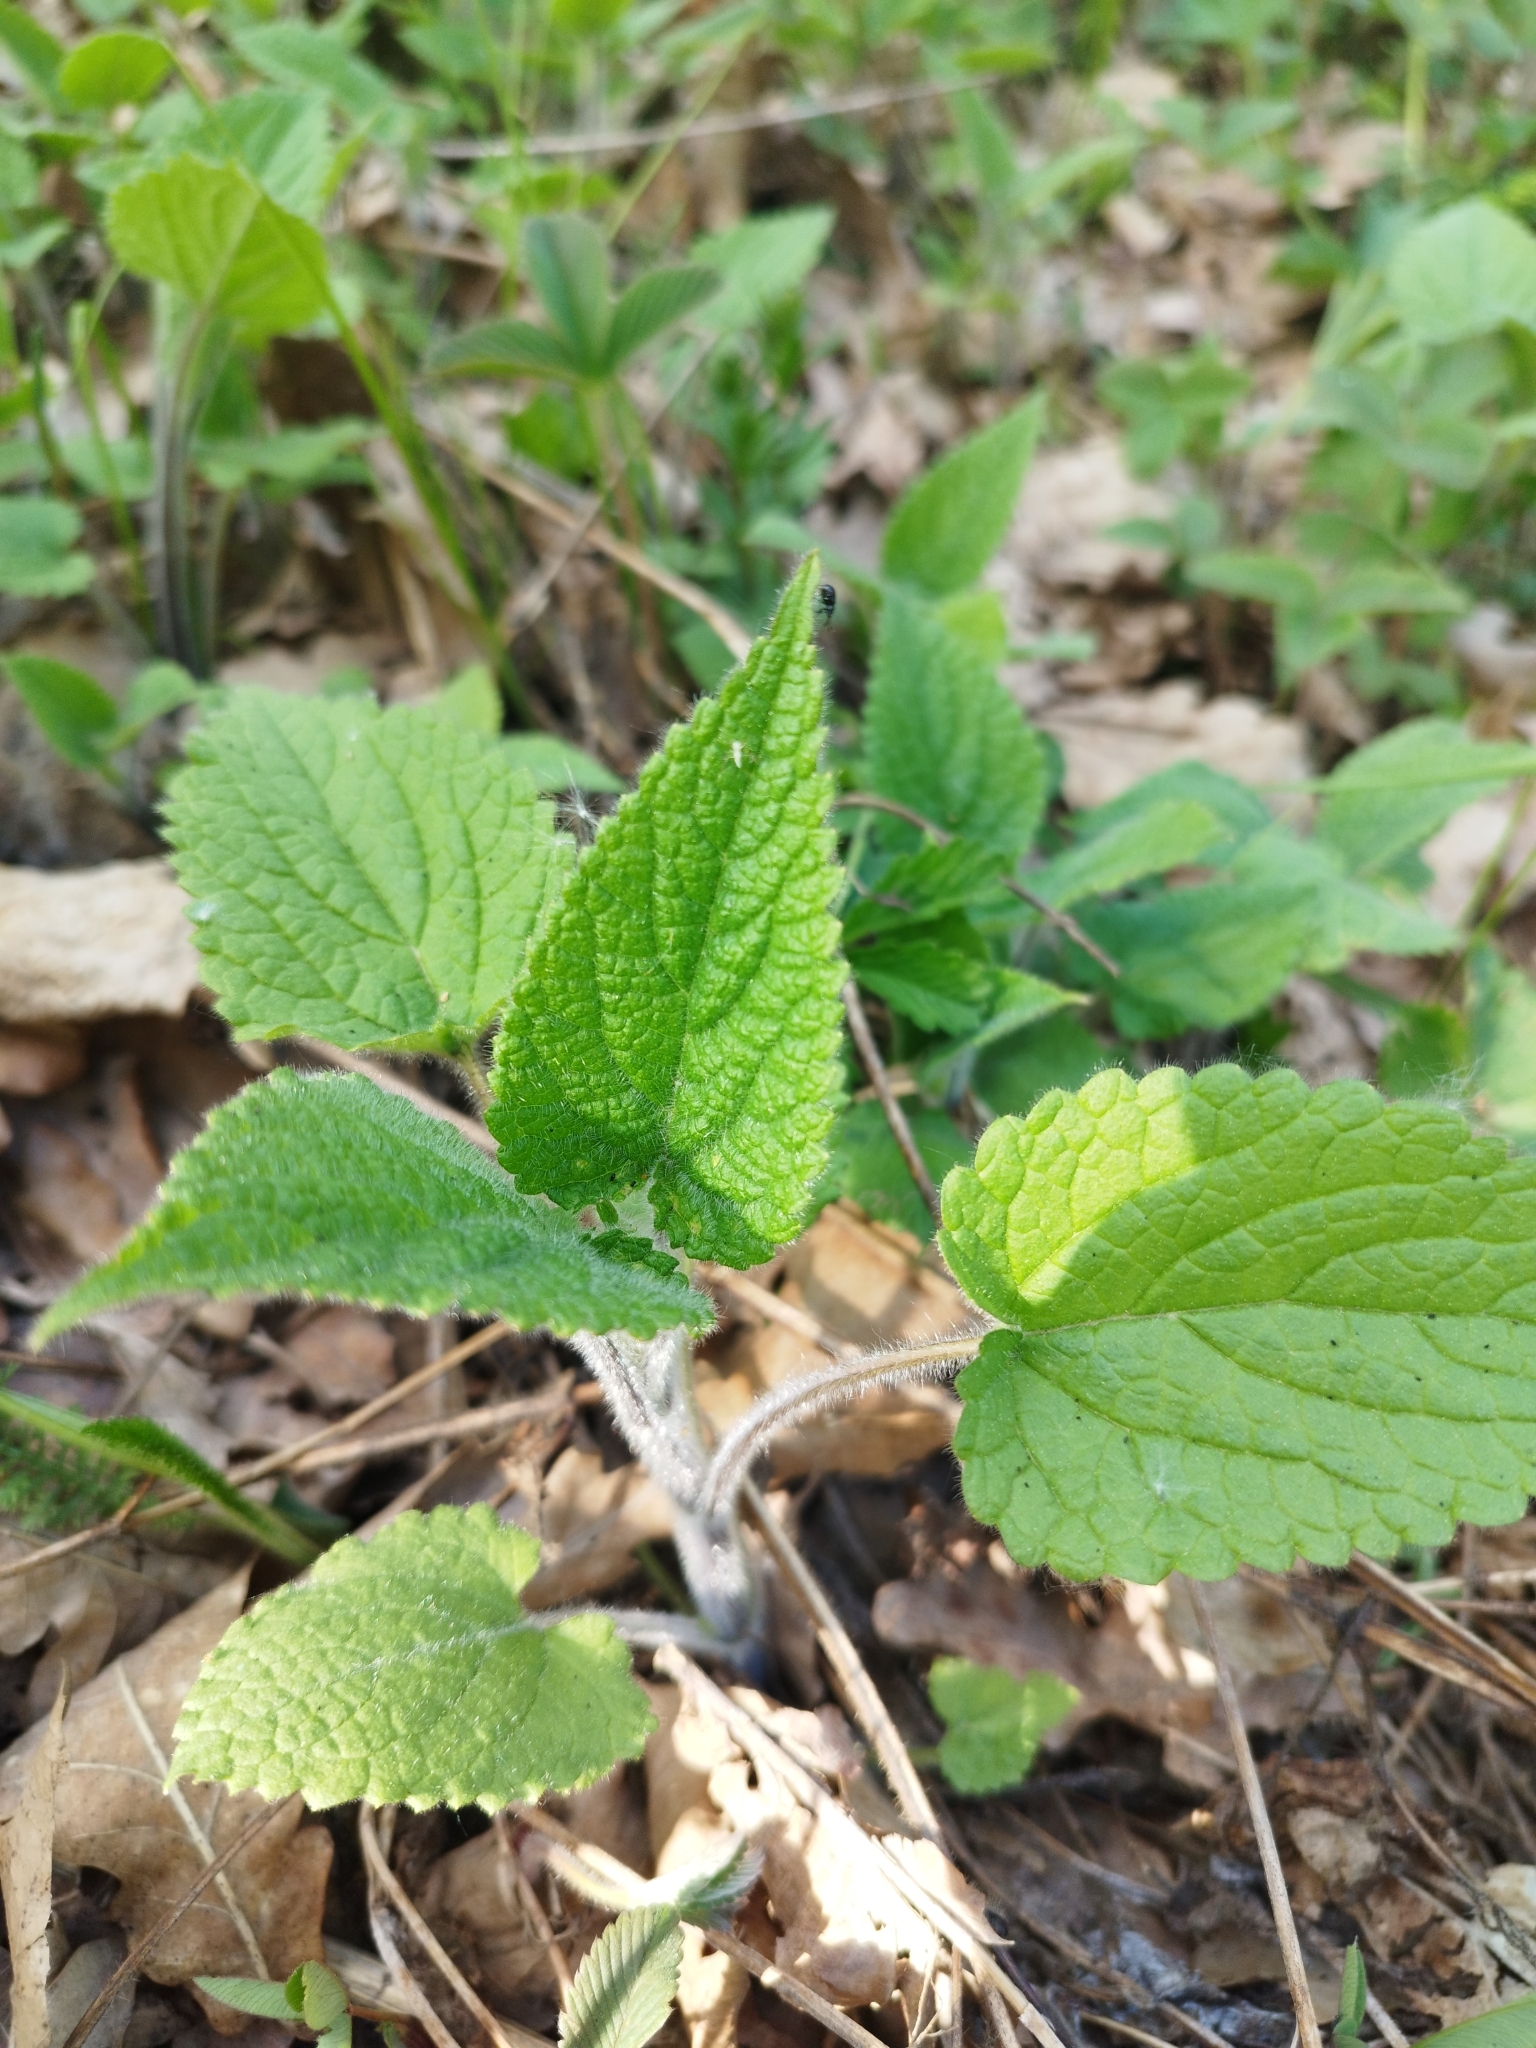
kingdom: Plantae
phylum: Tracheophyta
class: Magnoliopsida
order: Lamiales
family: Lamiaceae
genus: Stachys
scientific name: Stachys sylvatica
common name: Hedge woundwort
